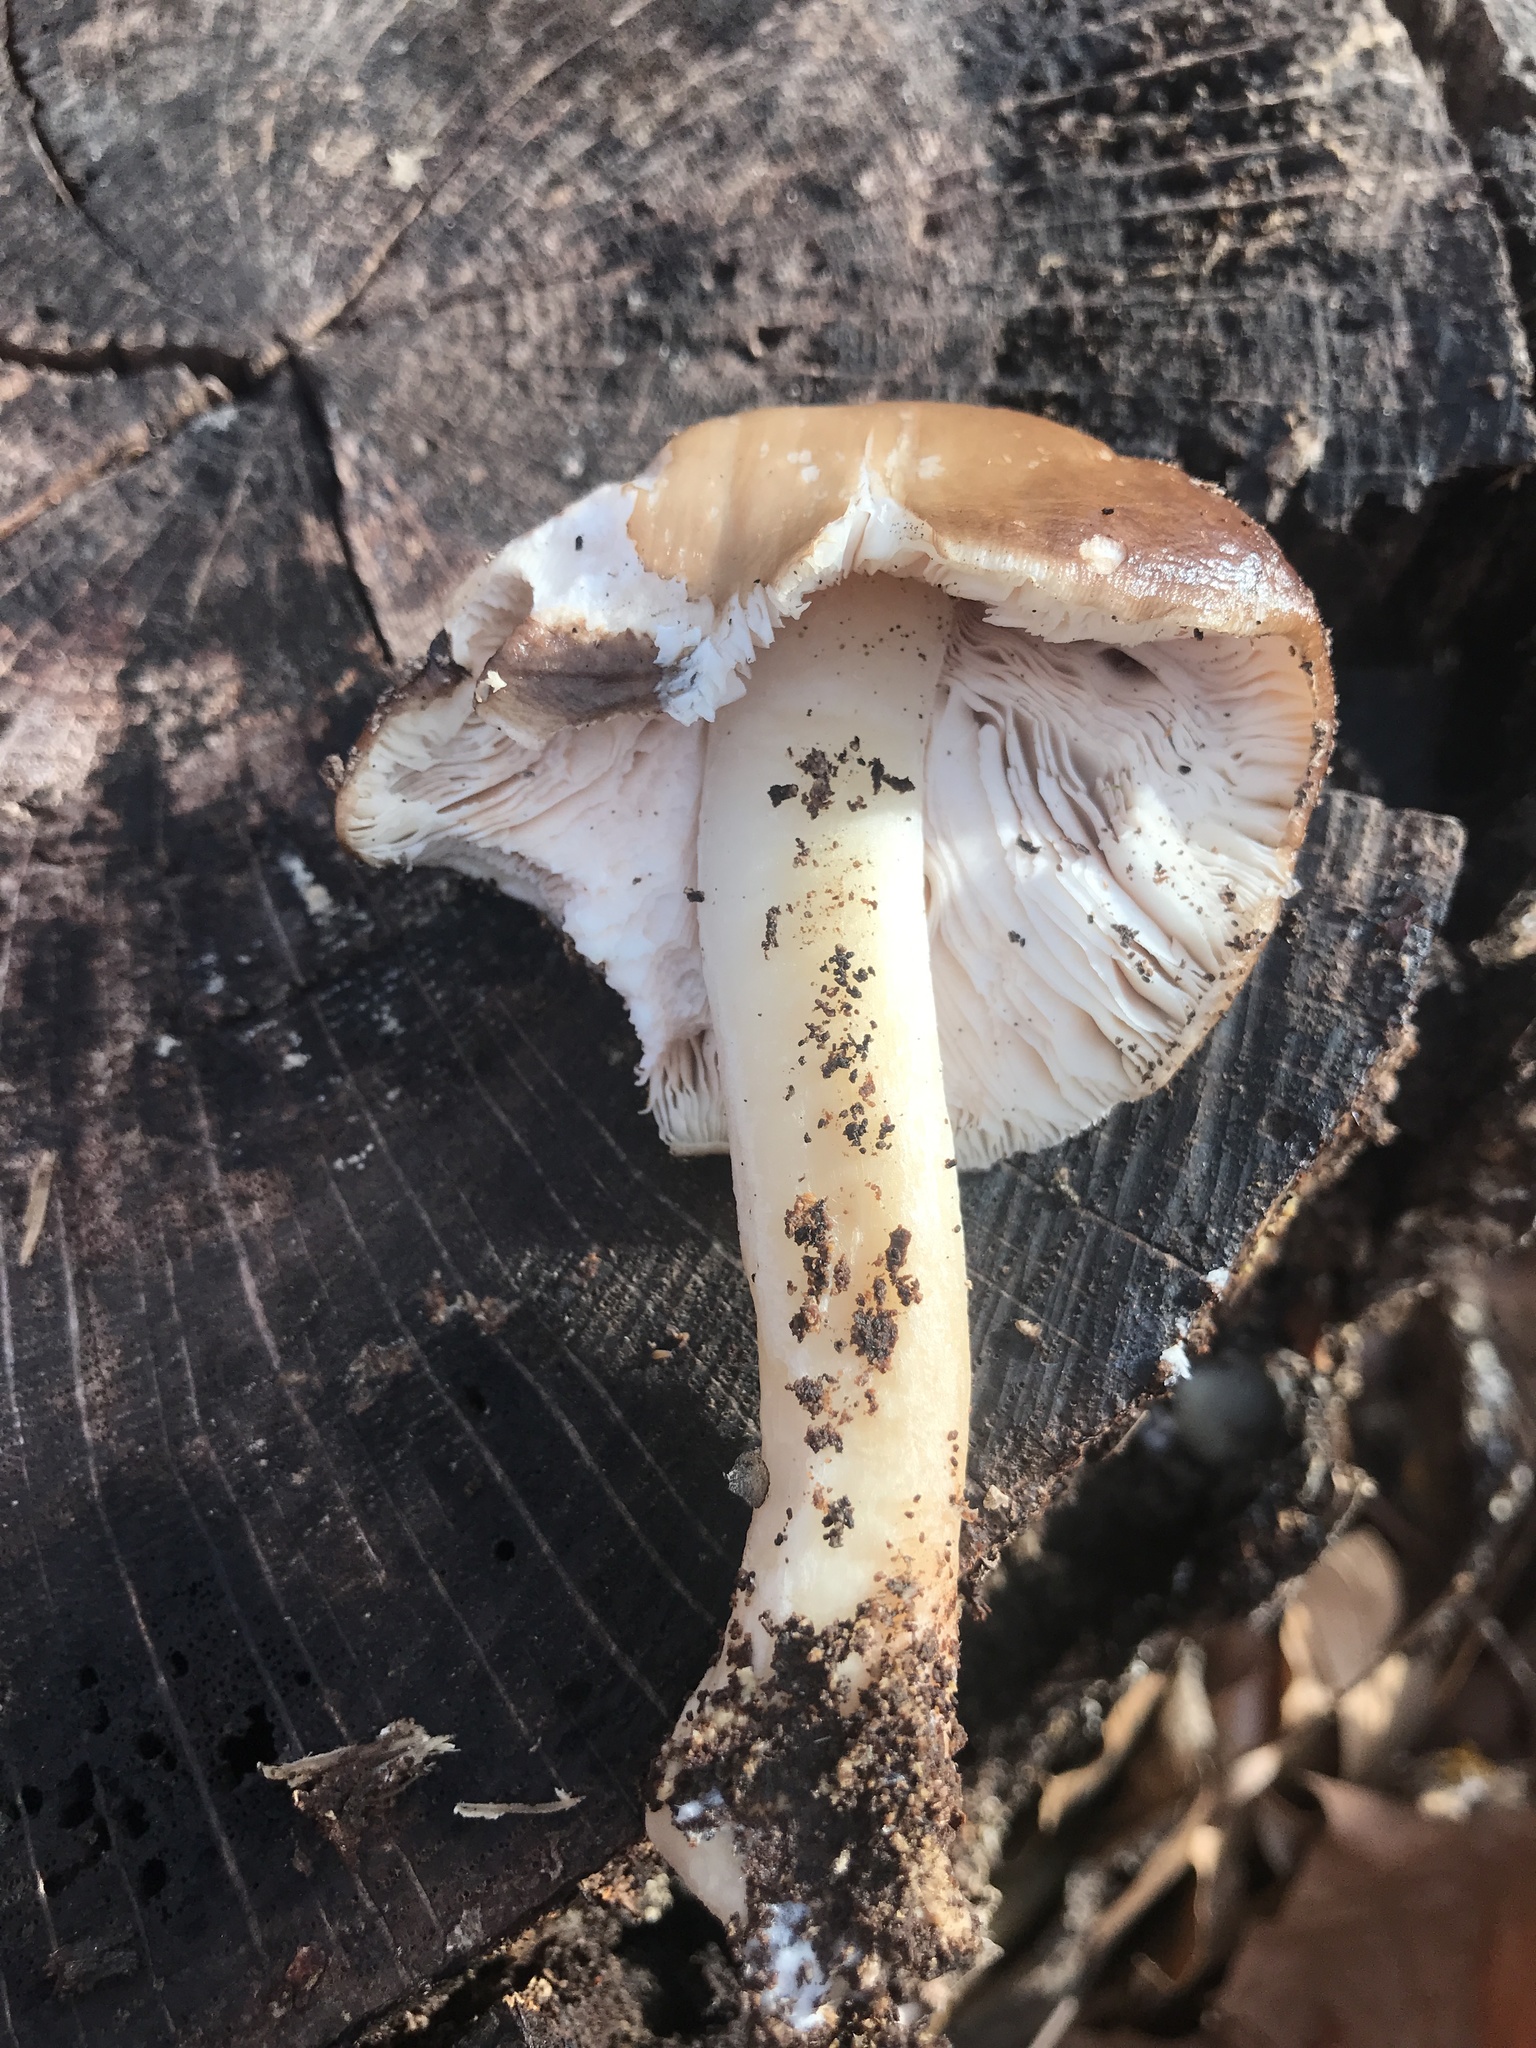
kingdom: Fungi
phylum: Basidiomycota
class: Agaricomycetes
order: Agaricales
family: Pluteaceae
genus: Pluteus
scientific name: Pluteus cervinus
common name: Deer shield
